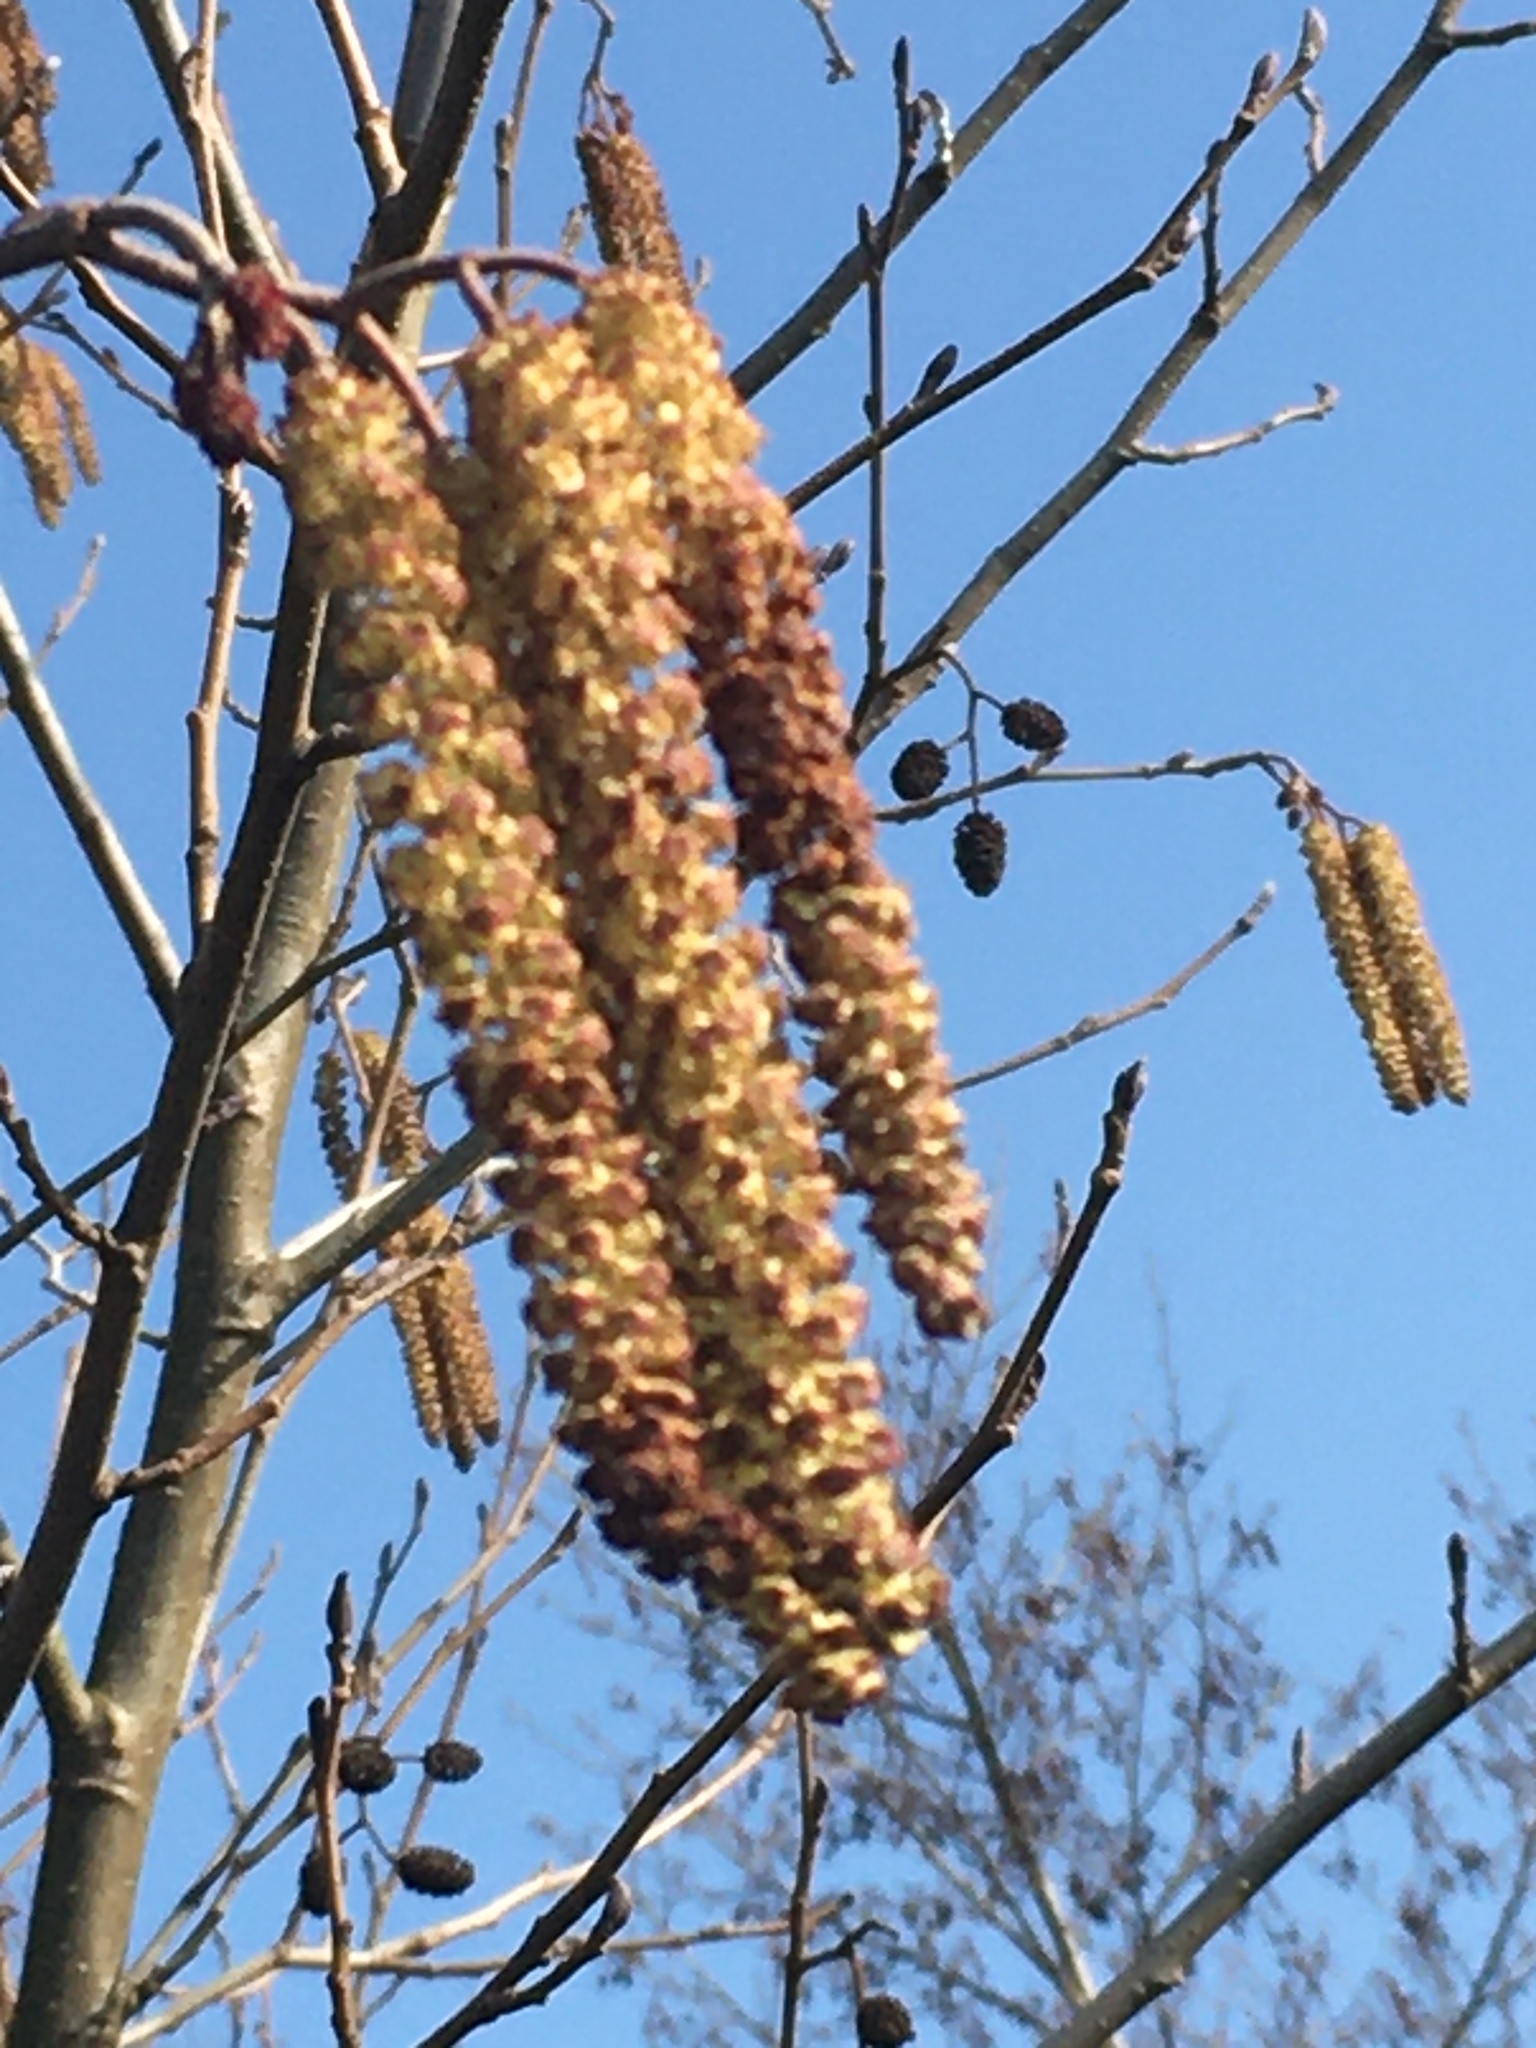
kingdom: Plantae
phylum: Tracheophyta
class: Magnoliopsida
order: Fagales
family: Betulaceae
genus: Alnus
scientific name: Alnus glutinosa
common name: Black alder
